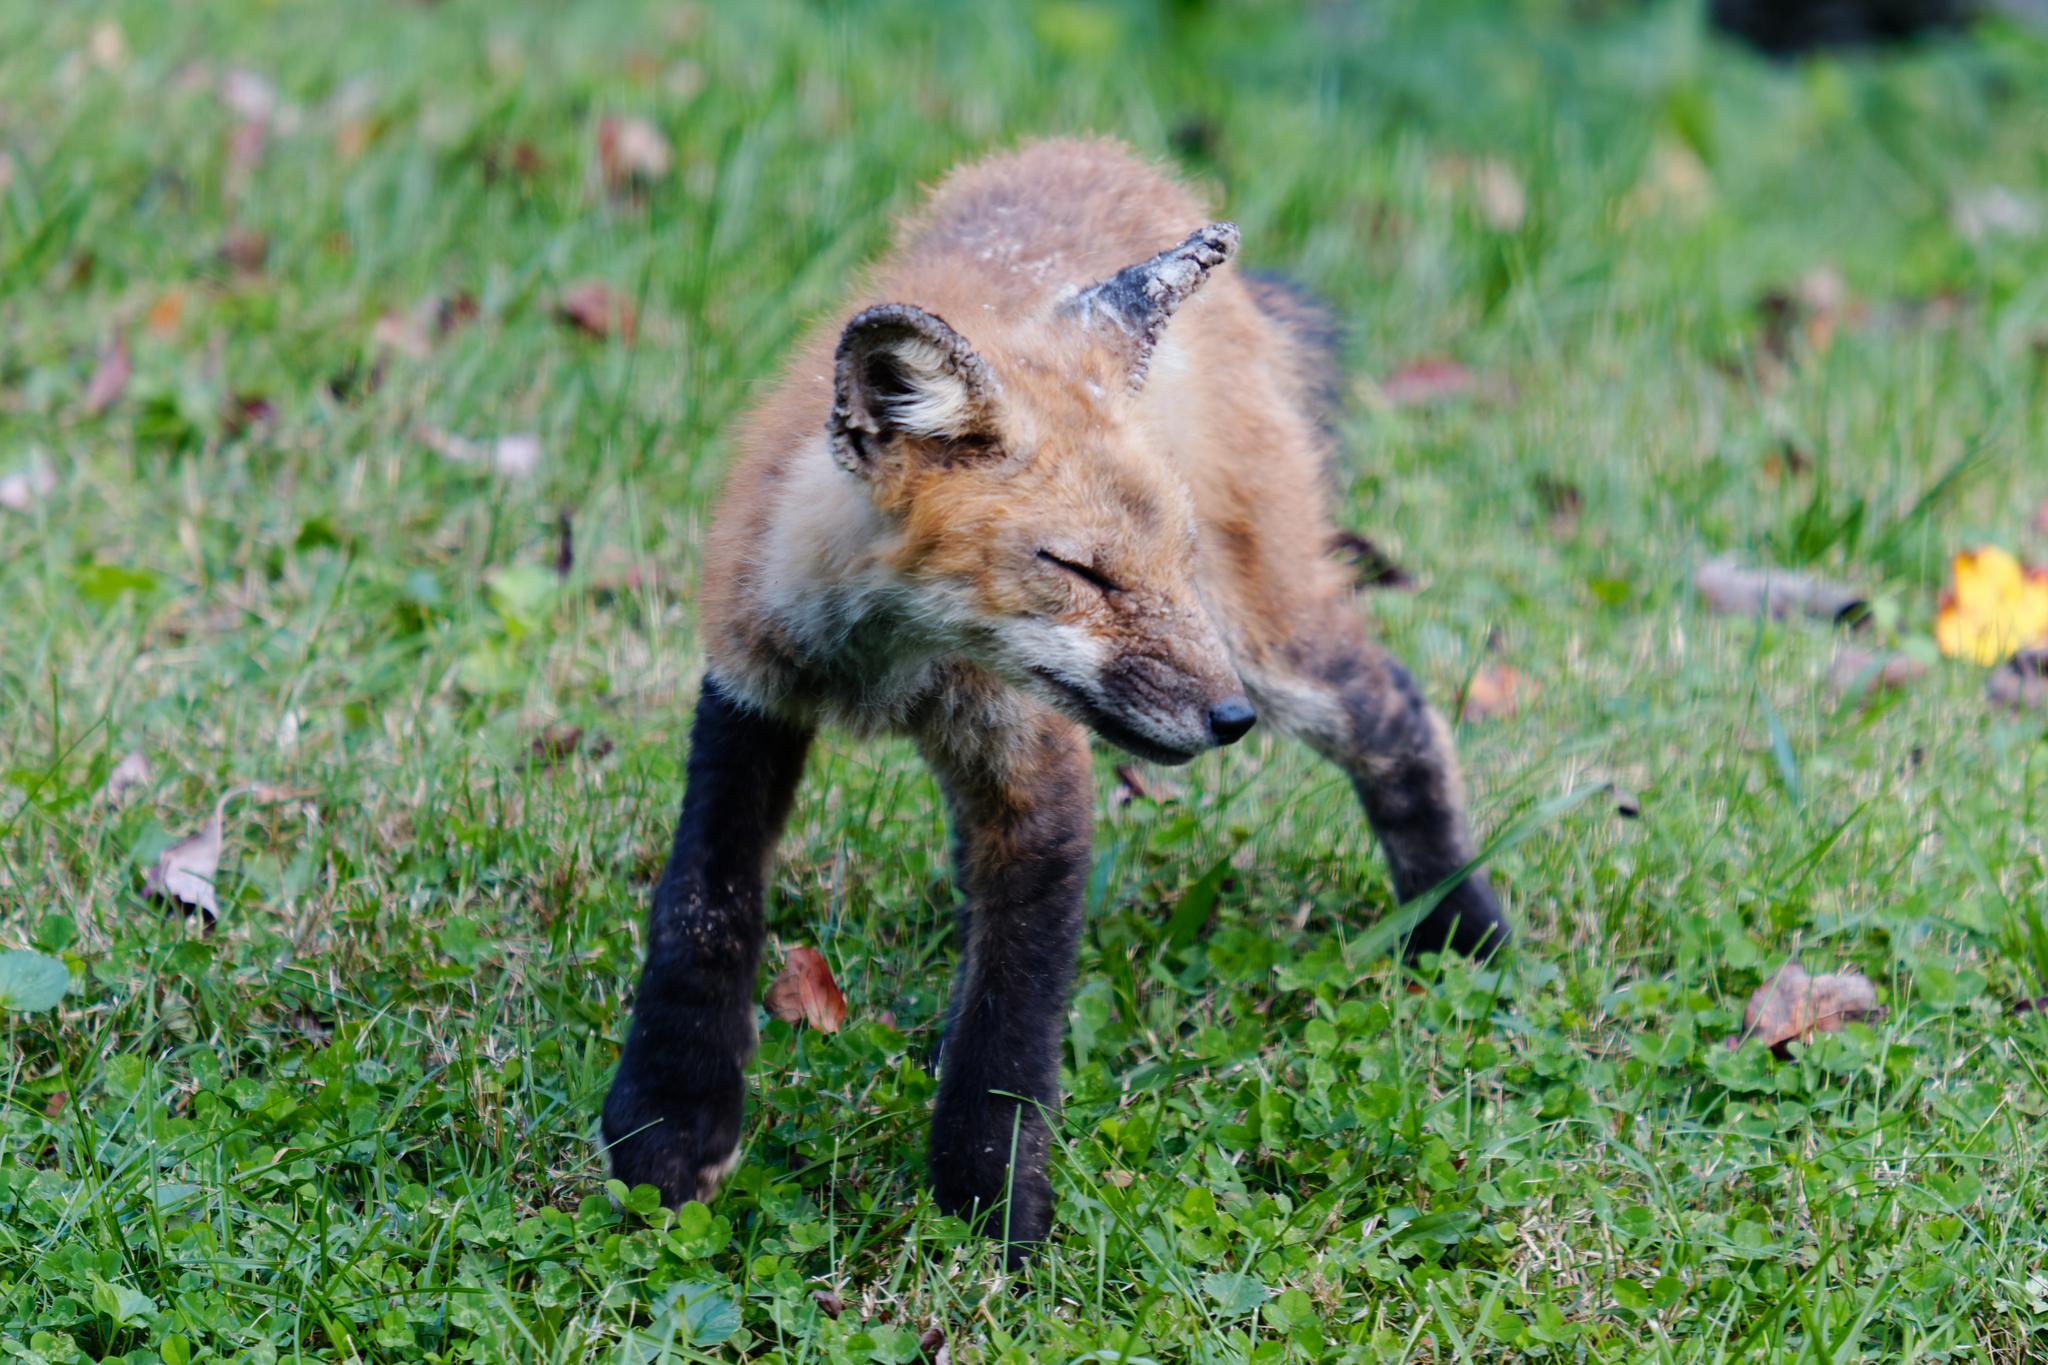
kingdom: Animalia
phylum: Chordata
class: Mammalia
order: Carnivora
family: Canidae
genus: Vulpes
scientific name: Vulpes vulpes
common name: Red fox
